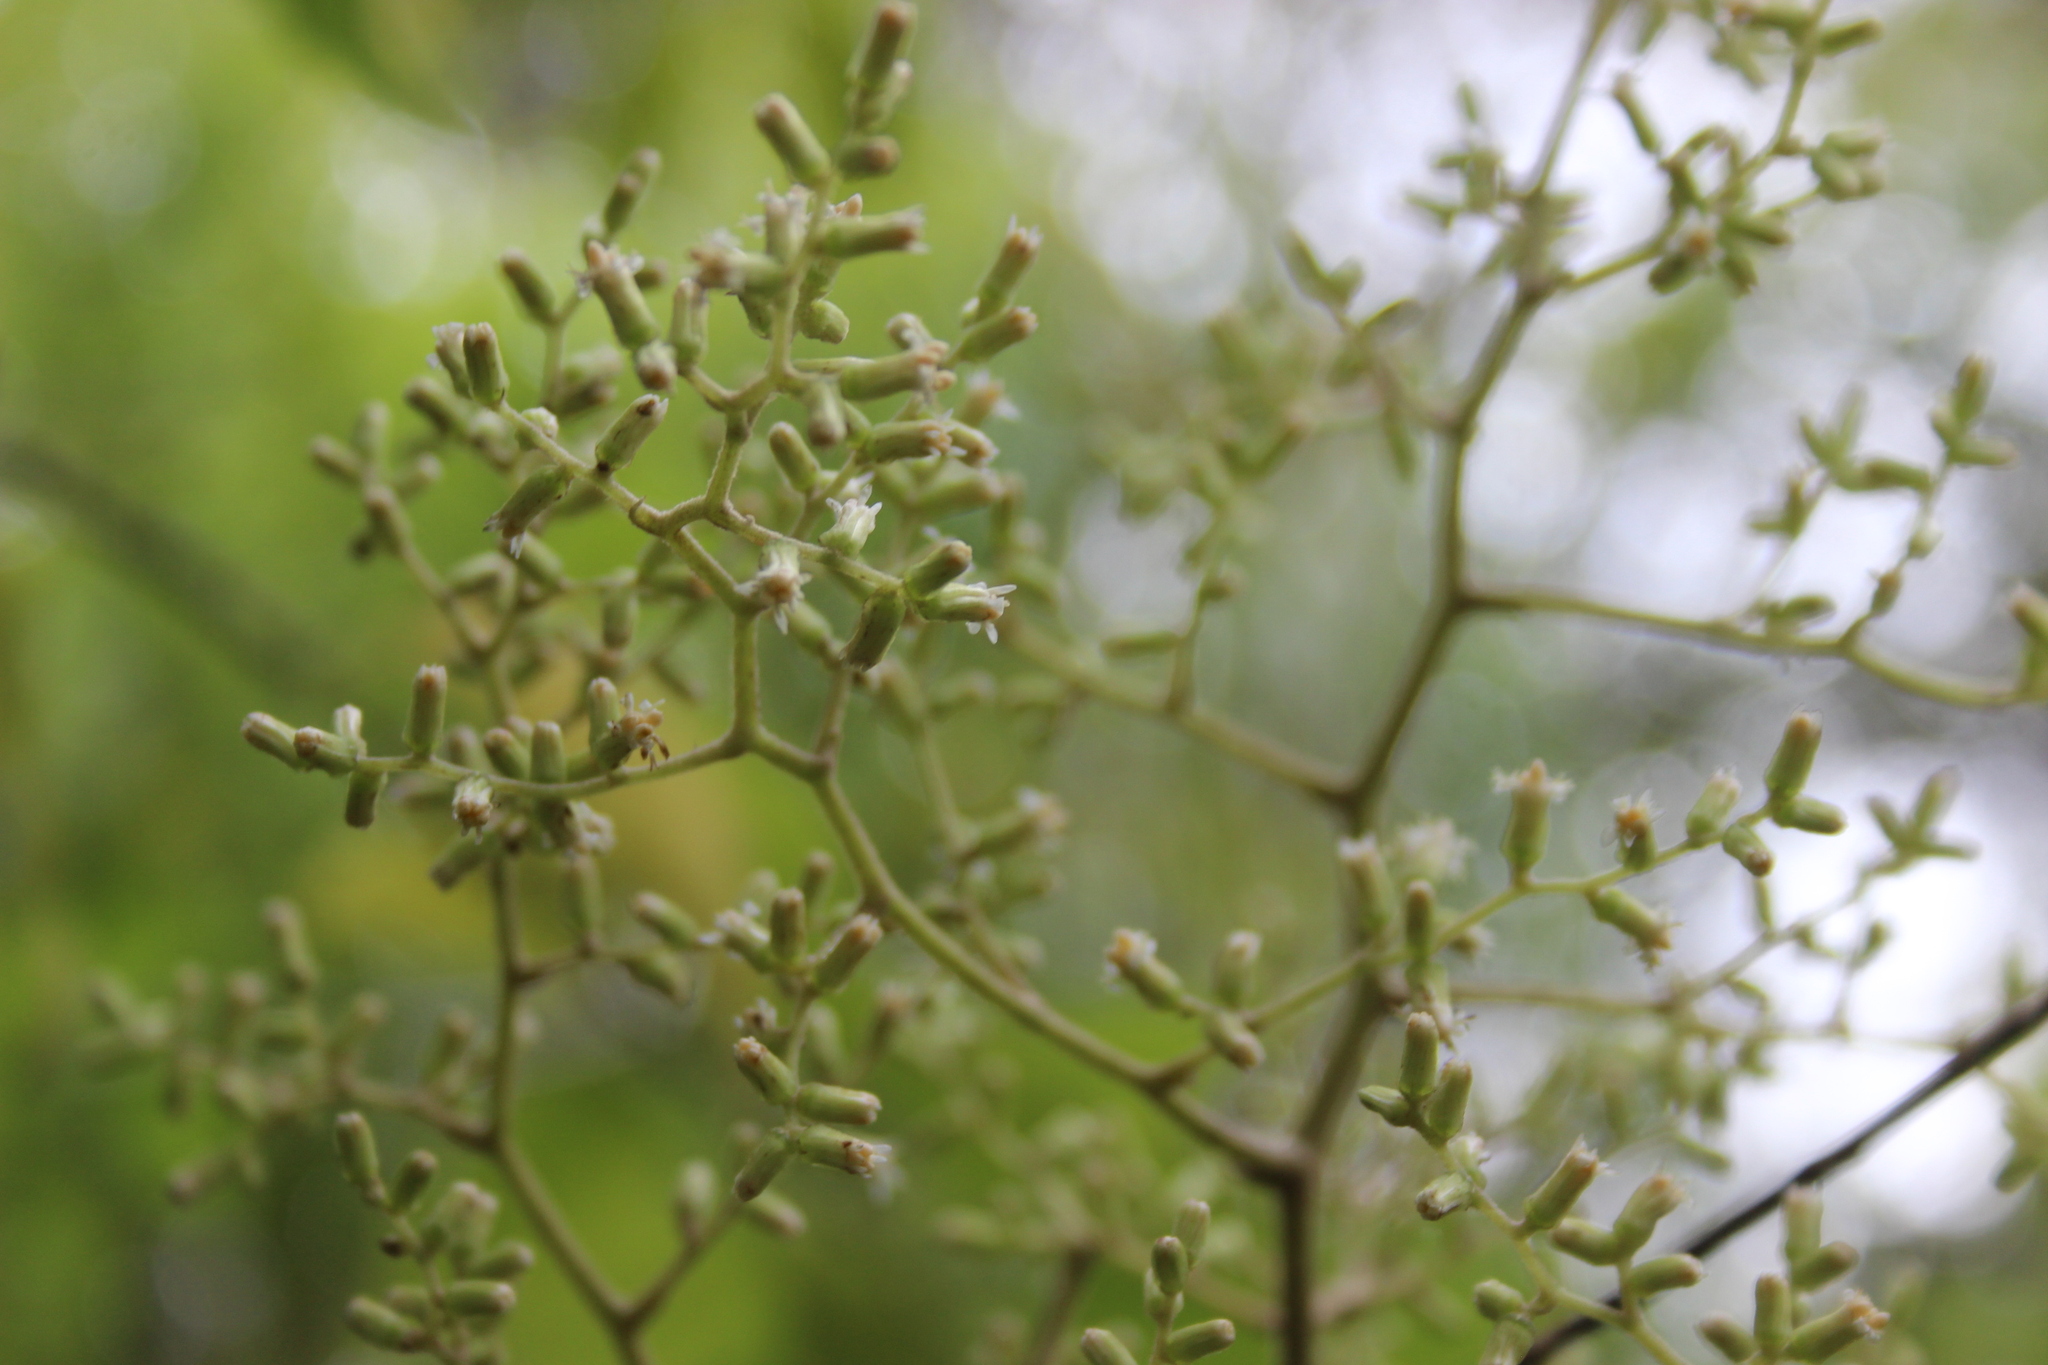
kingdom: Plantae
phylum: Tracheophyta
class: Magnoliopsida
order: Asterales
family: Asteraceae
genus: Brachyglottis
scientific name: Brachyglottis repanda
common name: Hedge ragwort
